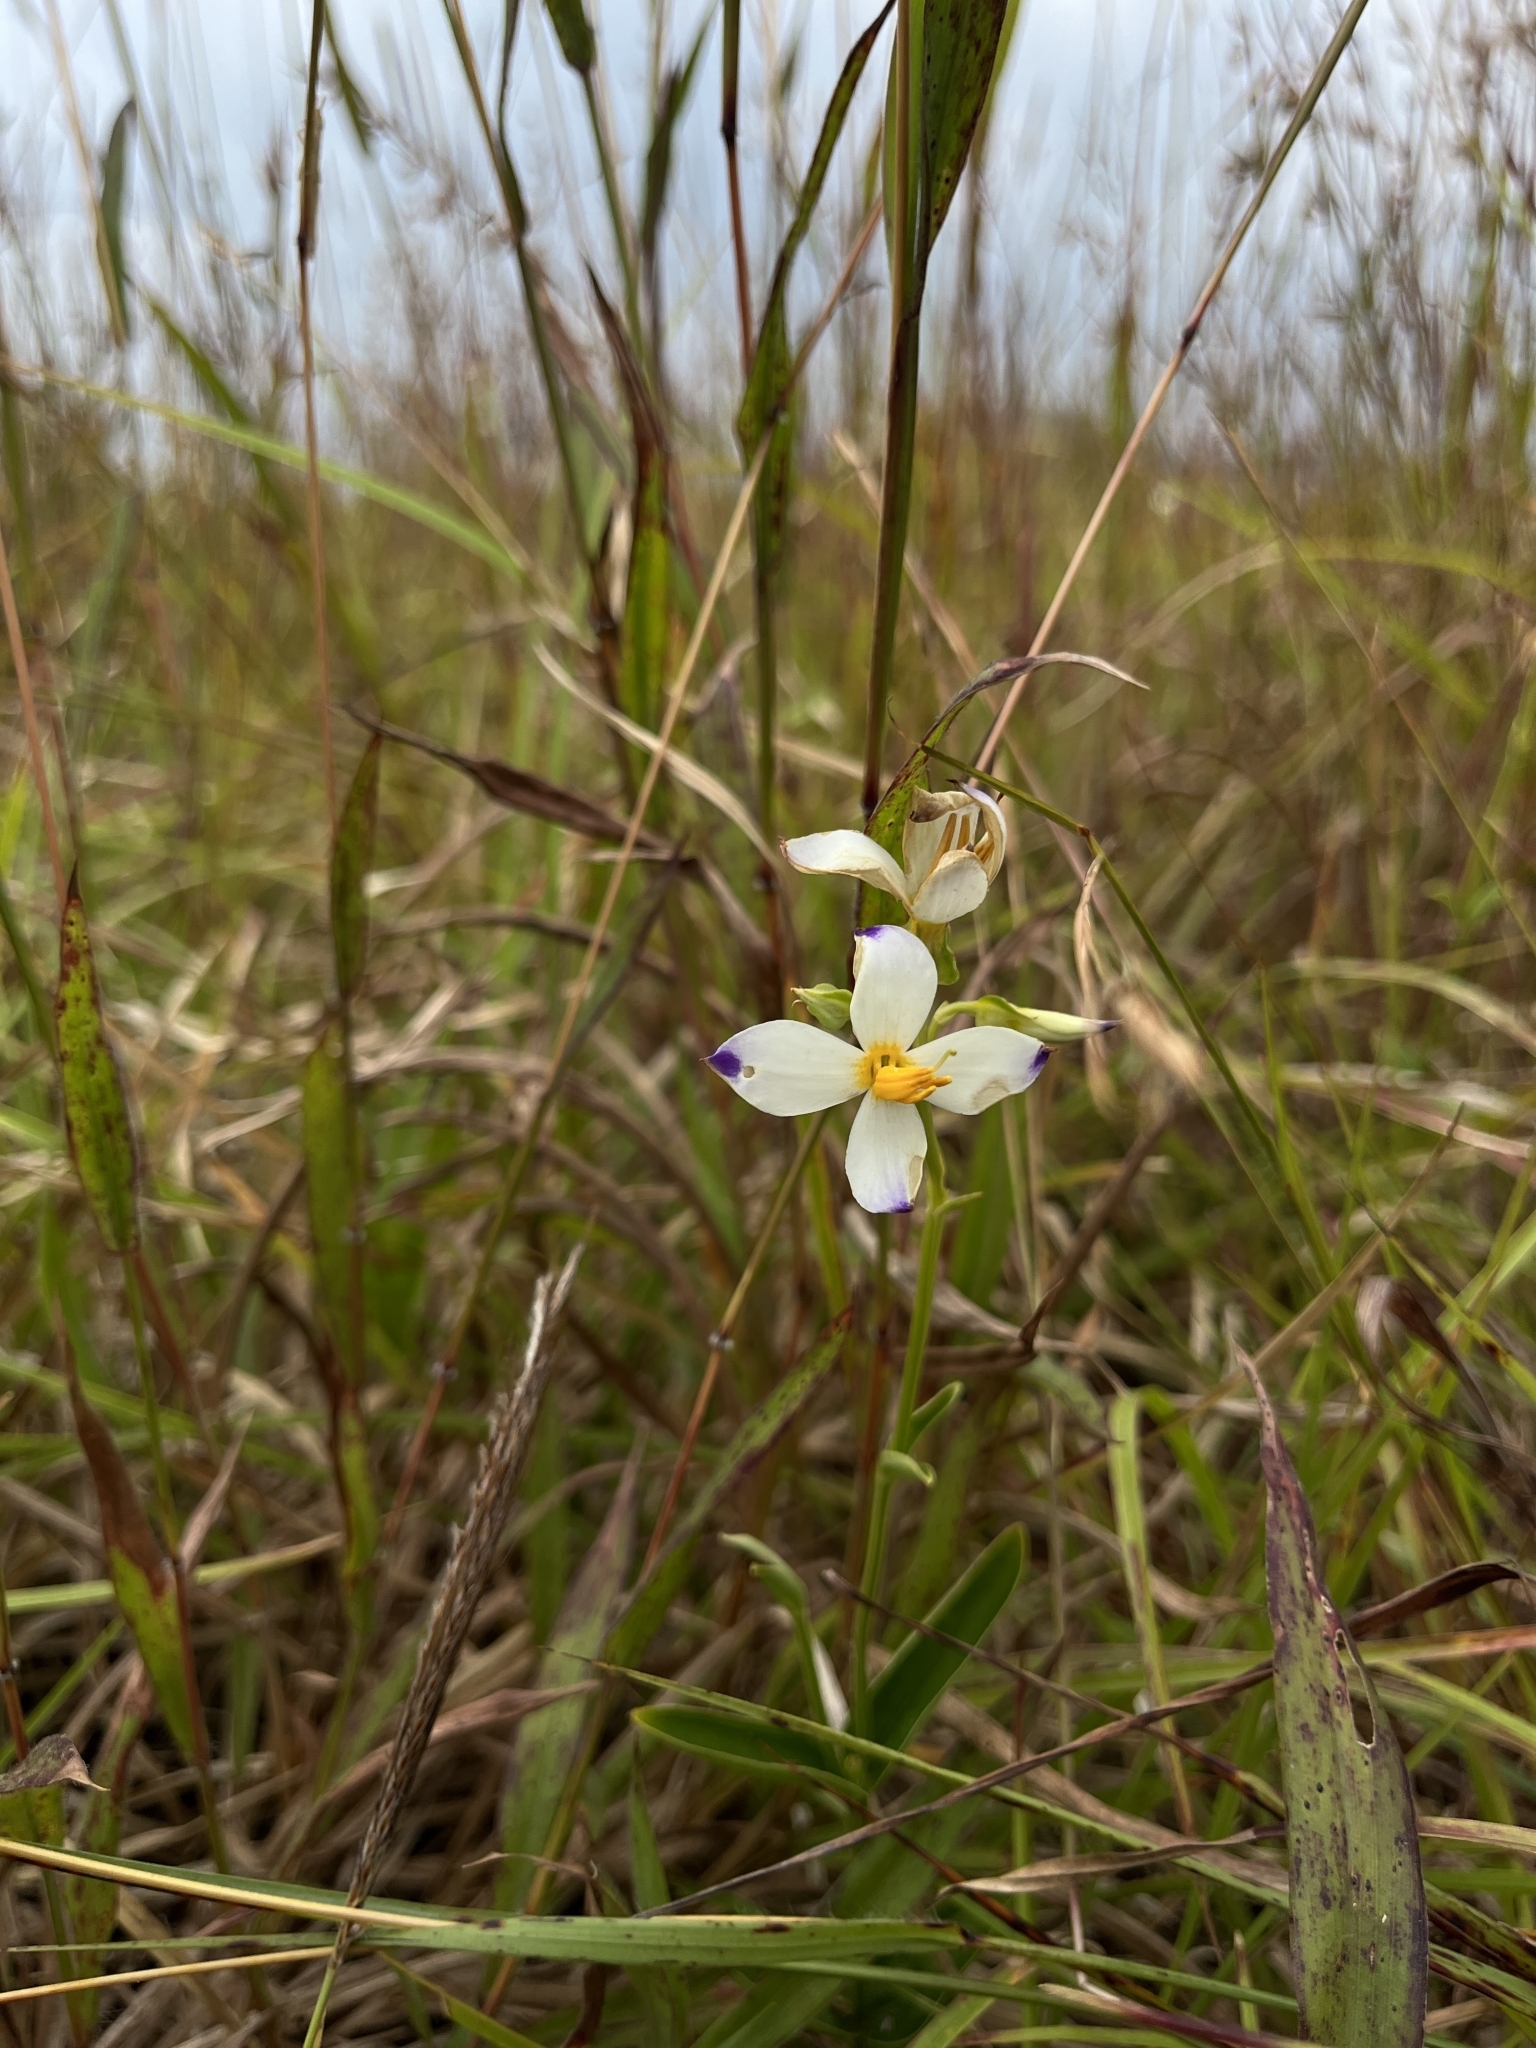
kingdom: Plantae
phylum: Tracheophyta
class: Magnoliopsida
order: Gentianales
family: Gentianaceae
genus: Exacum
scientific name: Exacum tetragonum
